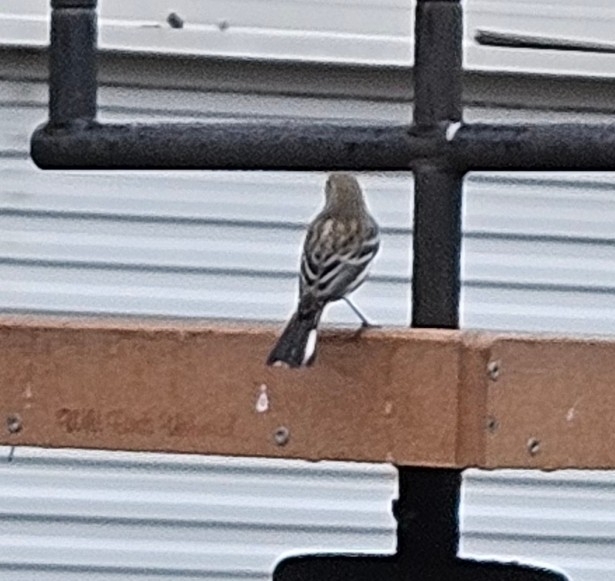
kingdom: Animalia
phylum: Chordata
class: Aves
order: Passeriformes
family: Parulidae
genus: Setophaga
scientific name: Setophaga coronata
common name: Myrtle warbler
